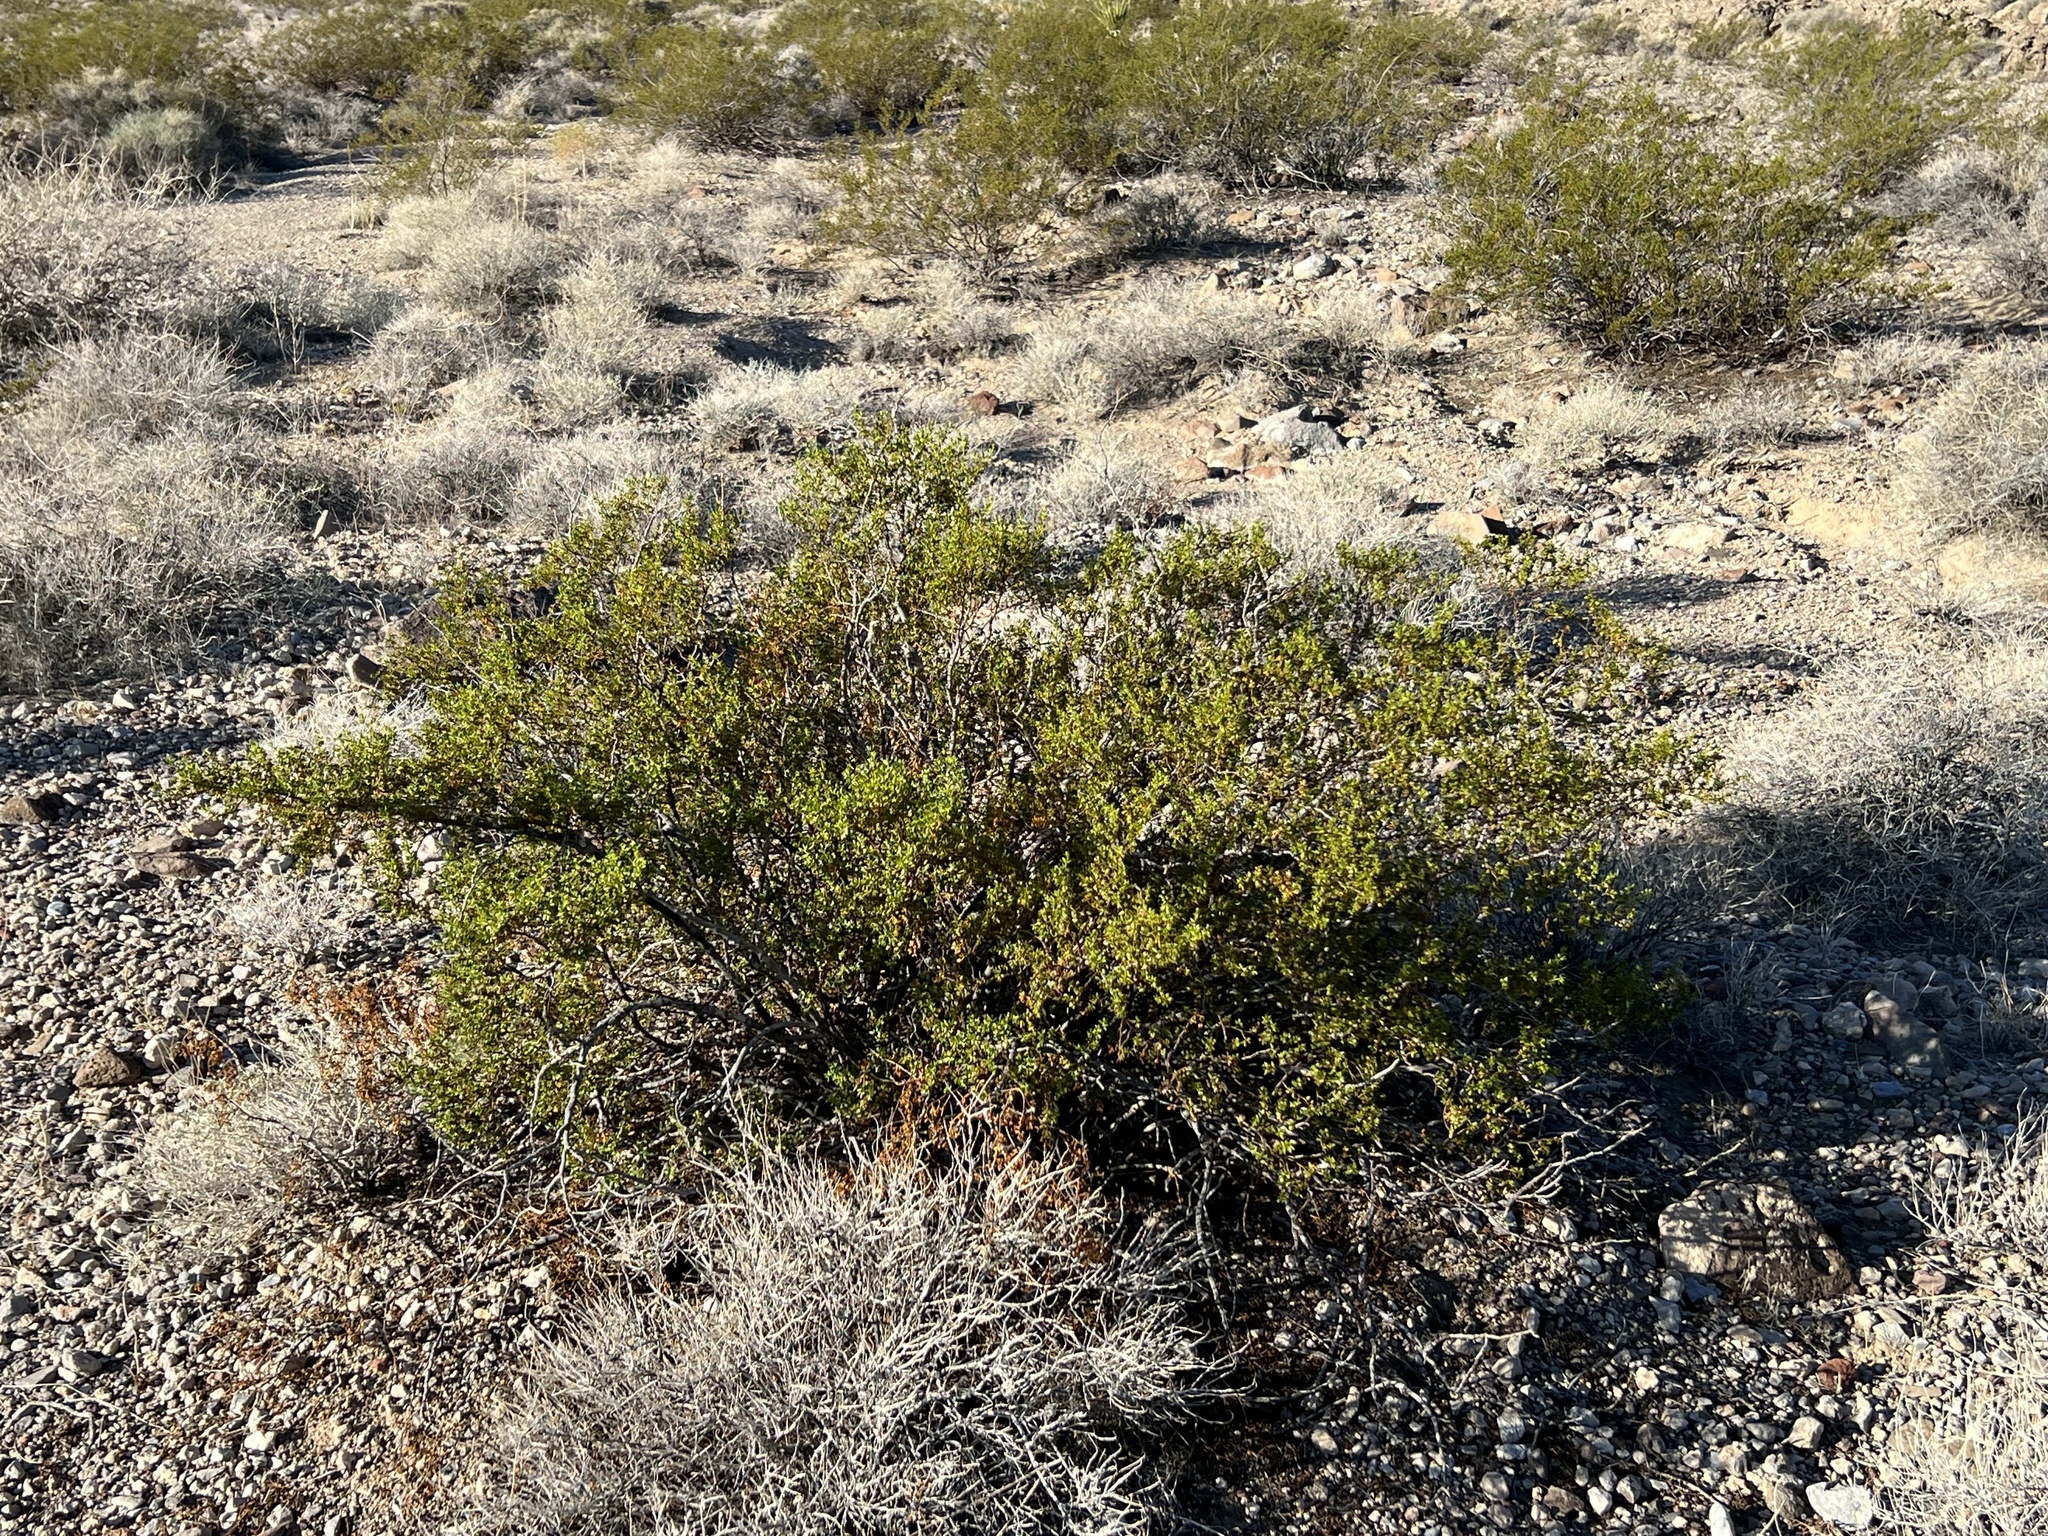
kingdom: Plantae
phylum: Tracheophyta
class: Magnoliopsida
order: Zygophyllales
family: Zygophyllaceae
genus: Larrea
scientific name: Larrea tridentata
